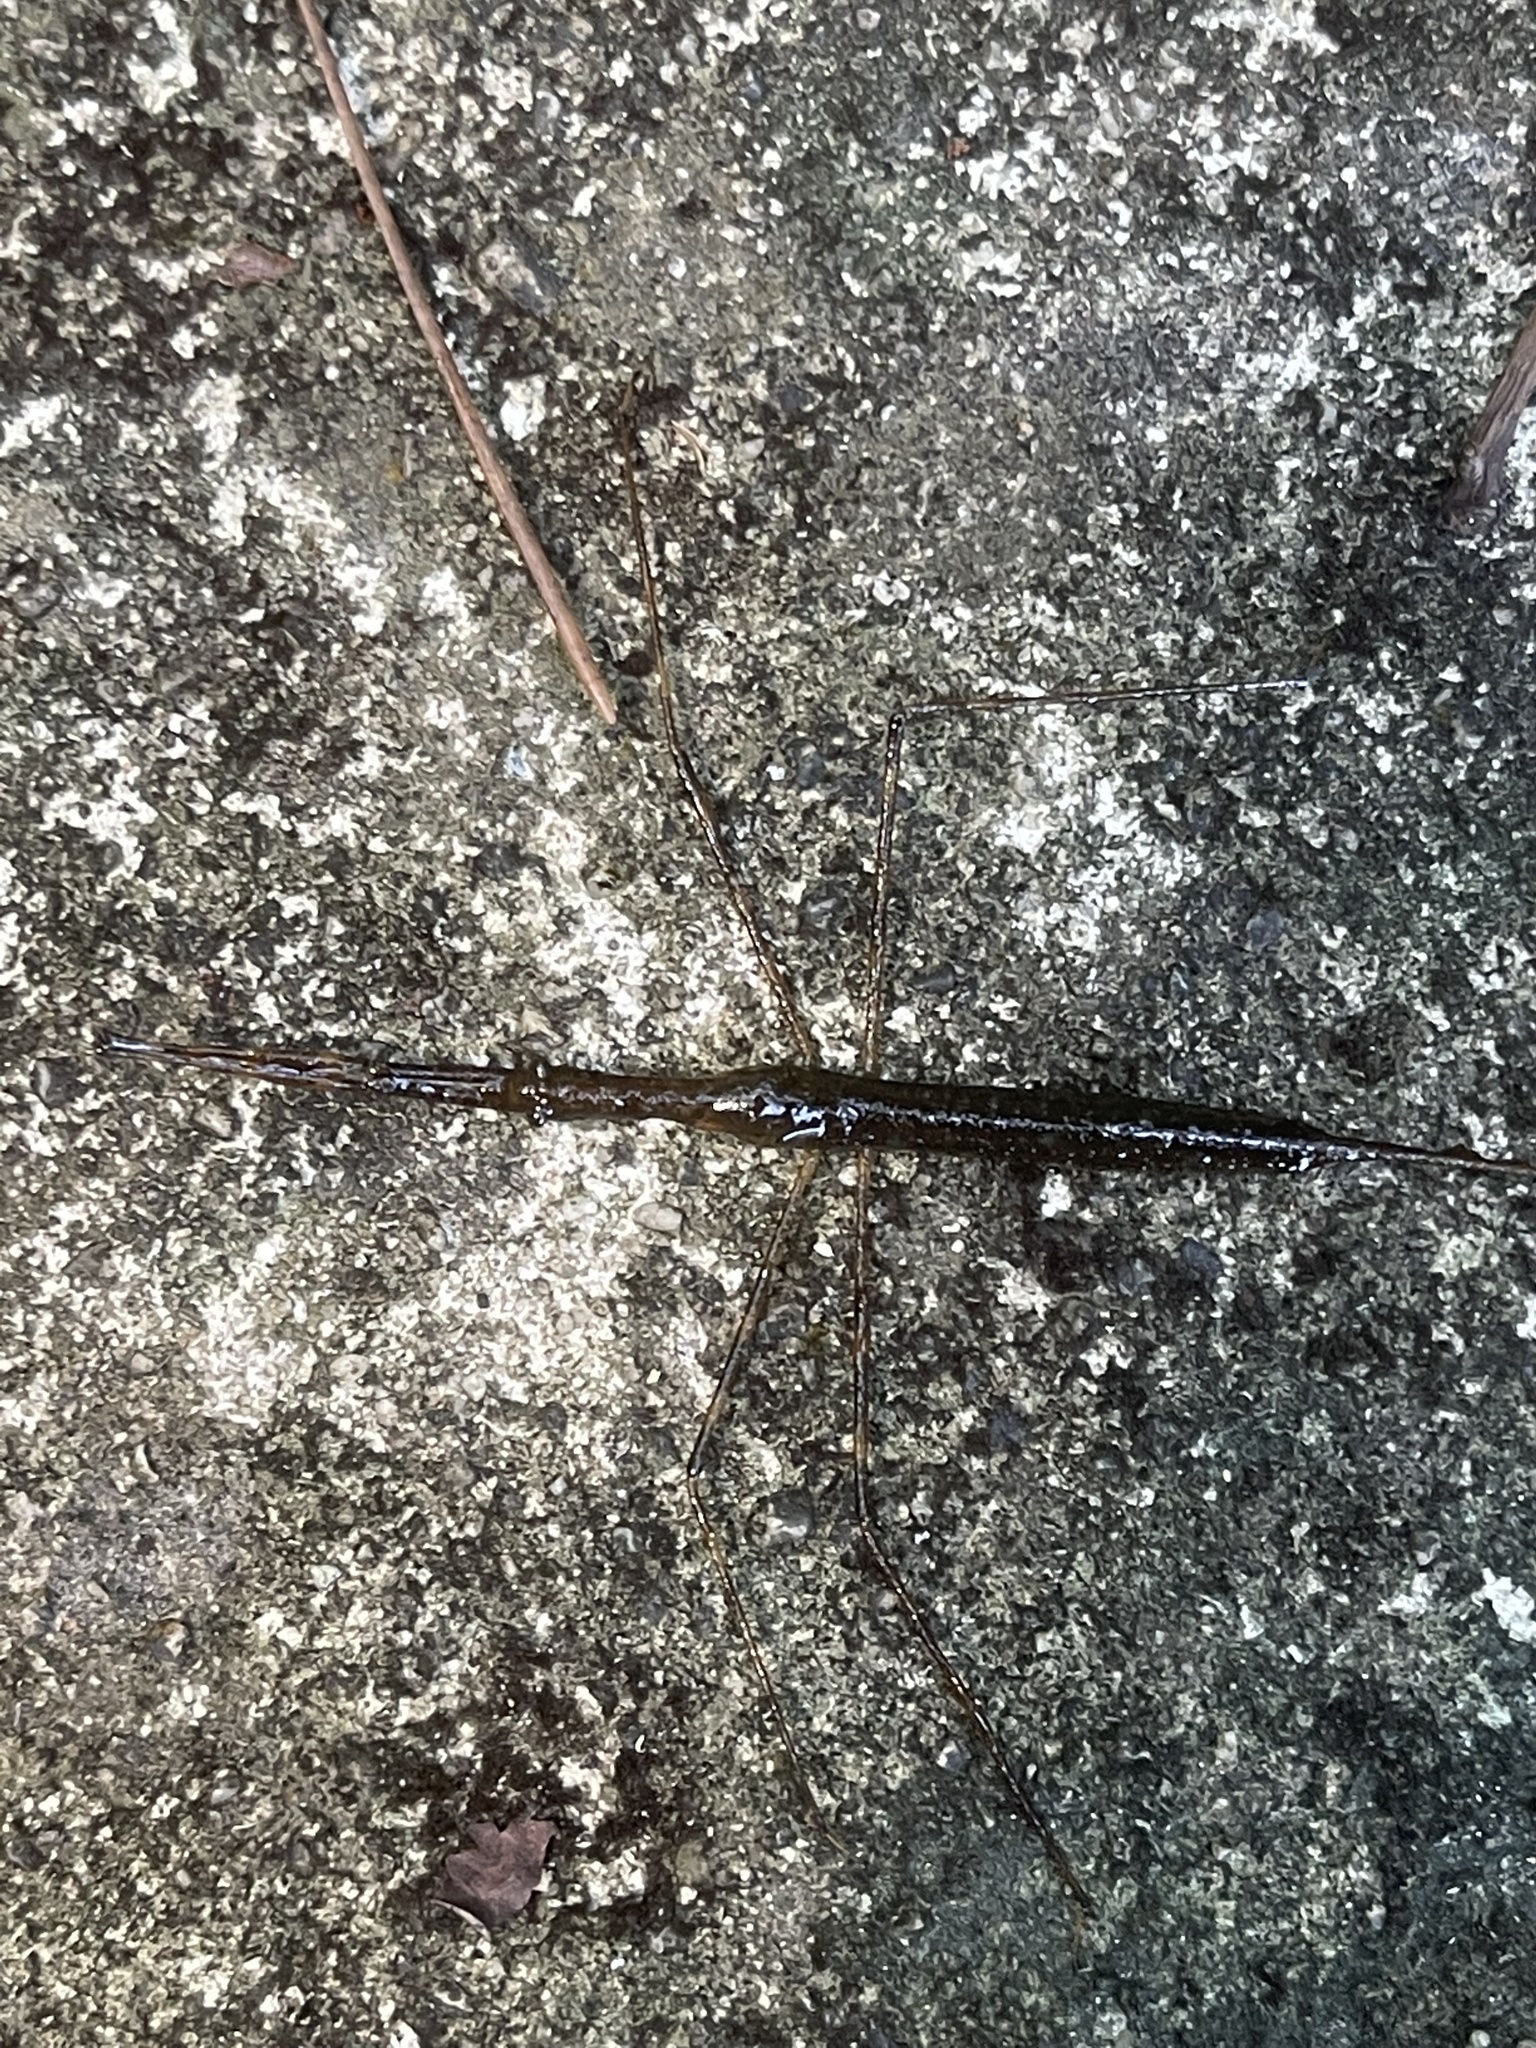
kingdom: Animalia
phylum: Arthropoda
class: Insecta
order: Hemiptera
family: Nepidae
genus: Ranatra
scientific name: Ranatra
